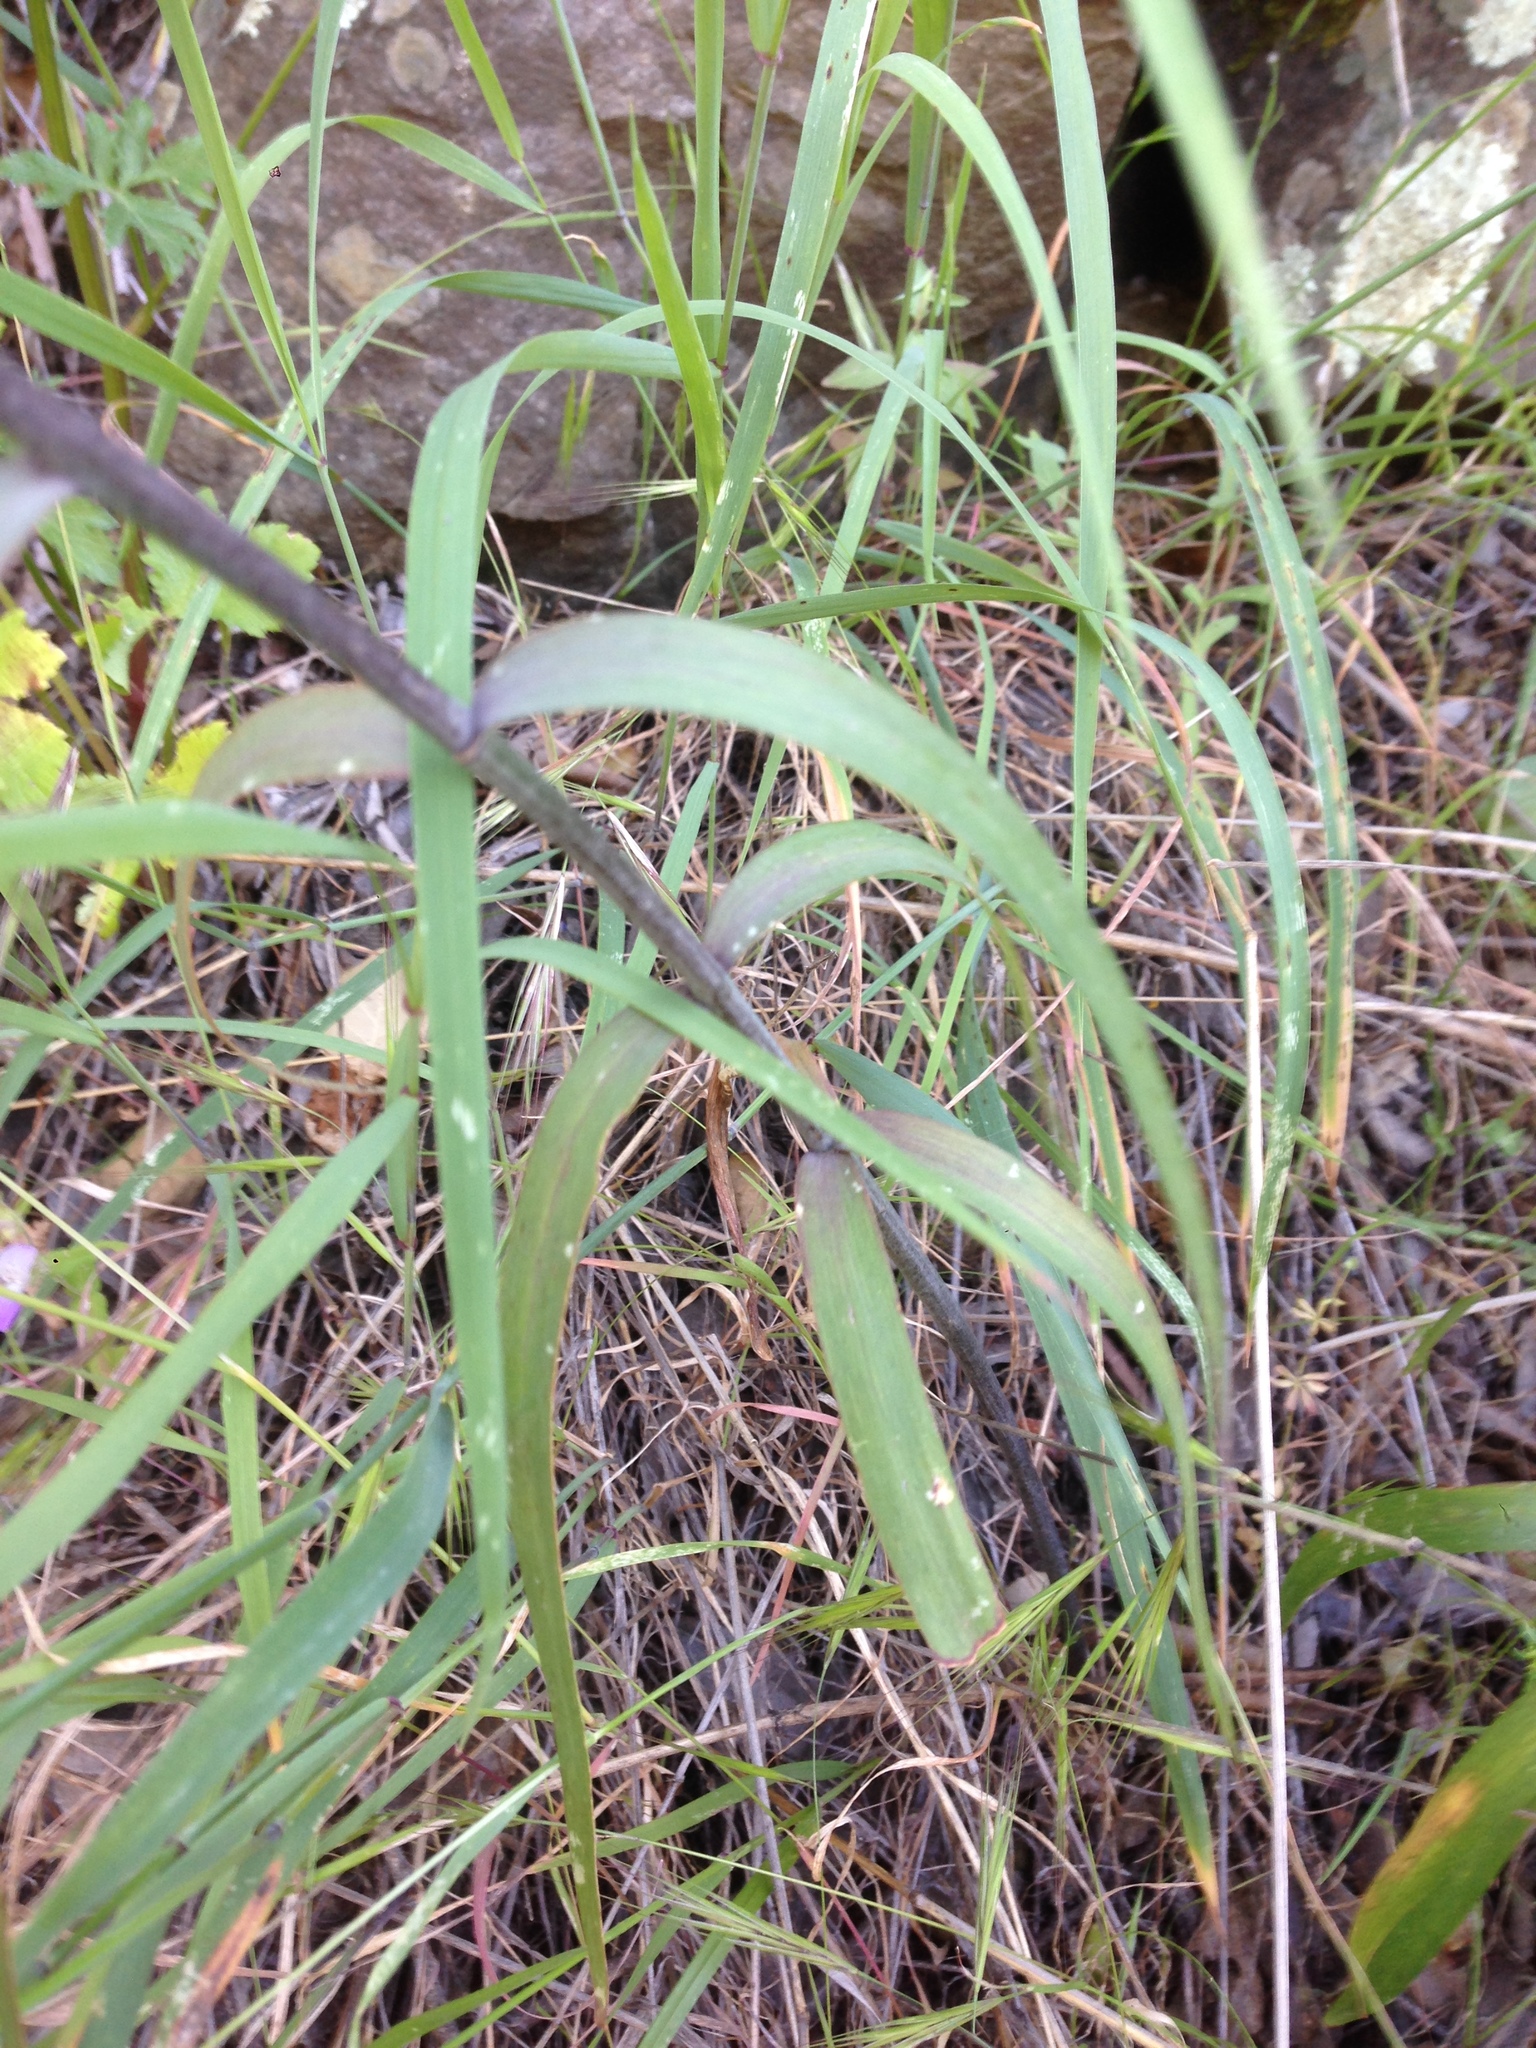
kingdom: Plantae
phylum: Tracheophyta
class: Liliopsida
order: Liliales
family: Liliaceae
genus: Fritillaria
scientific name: Fritillaria ojaiensis
